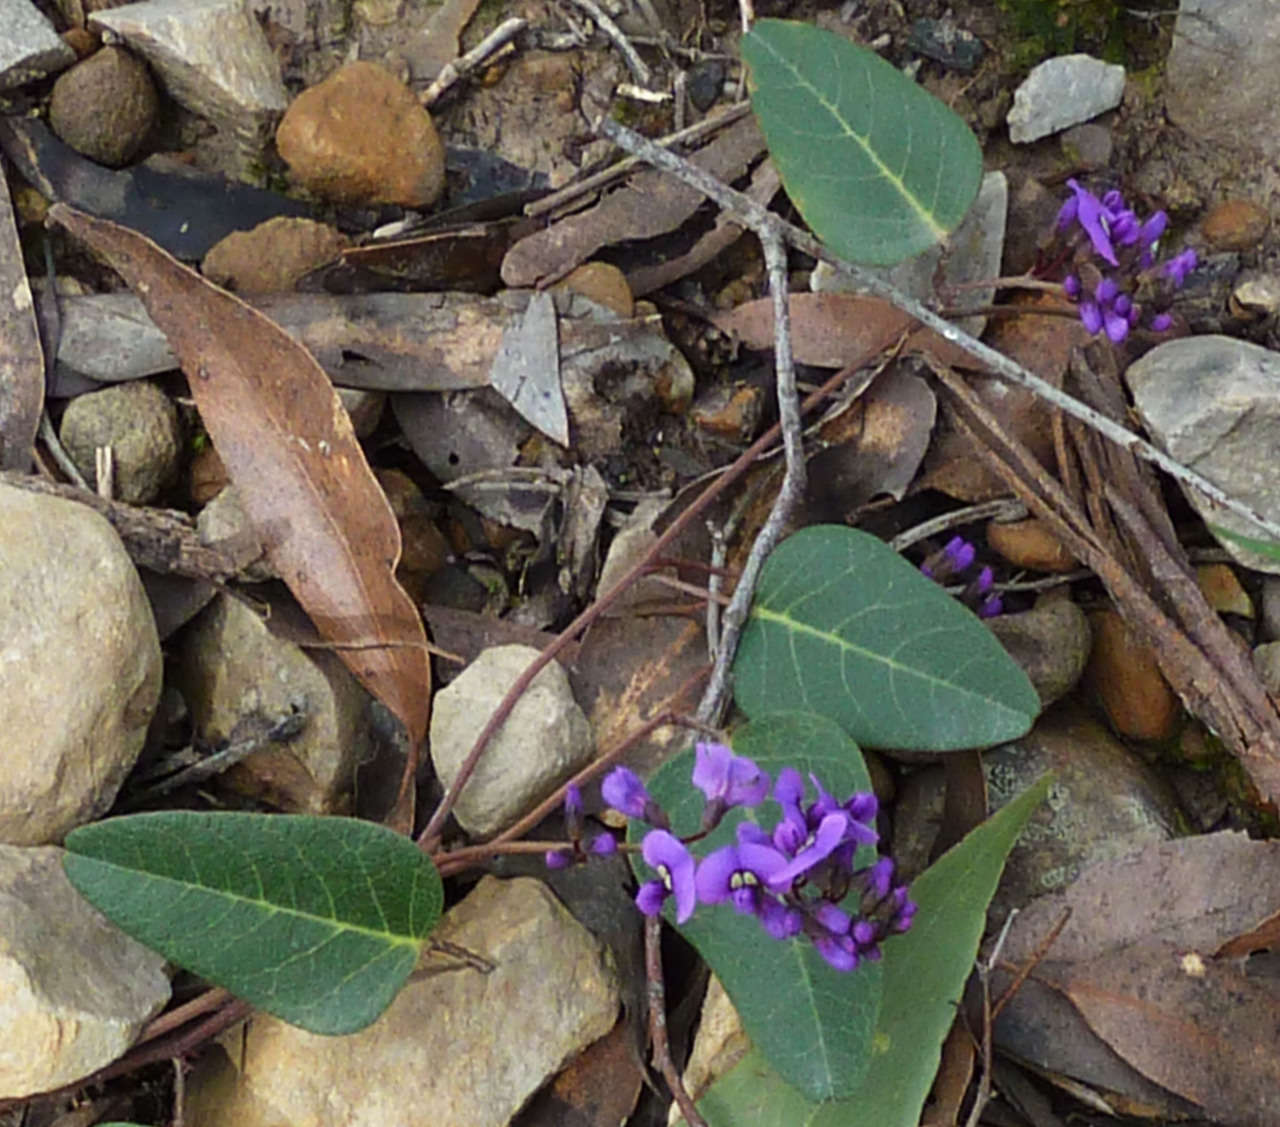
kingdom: Plantae
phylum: Tracheophyta
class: Magnoliopsida
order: Fabales
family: Fabaceae
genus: Hardenbergia
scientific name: Hardenbergia violacea
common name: Coral-pea
